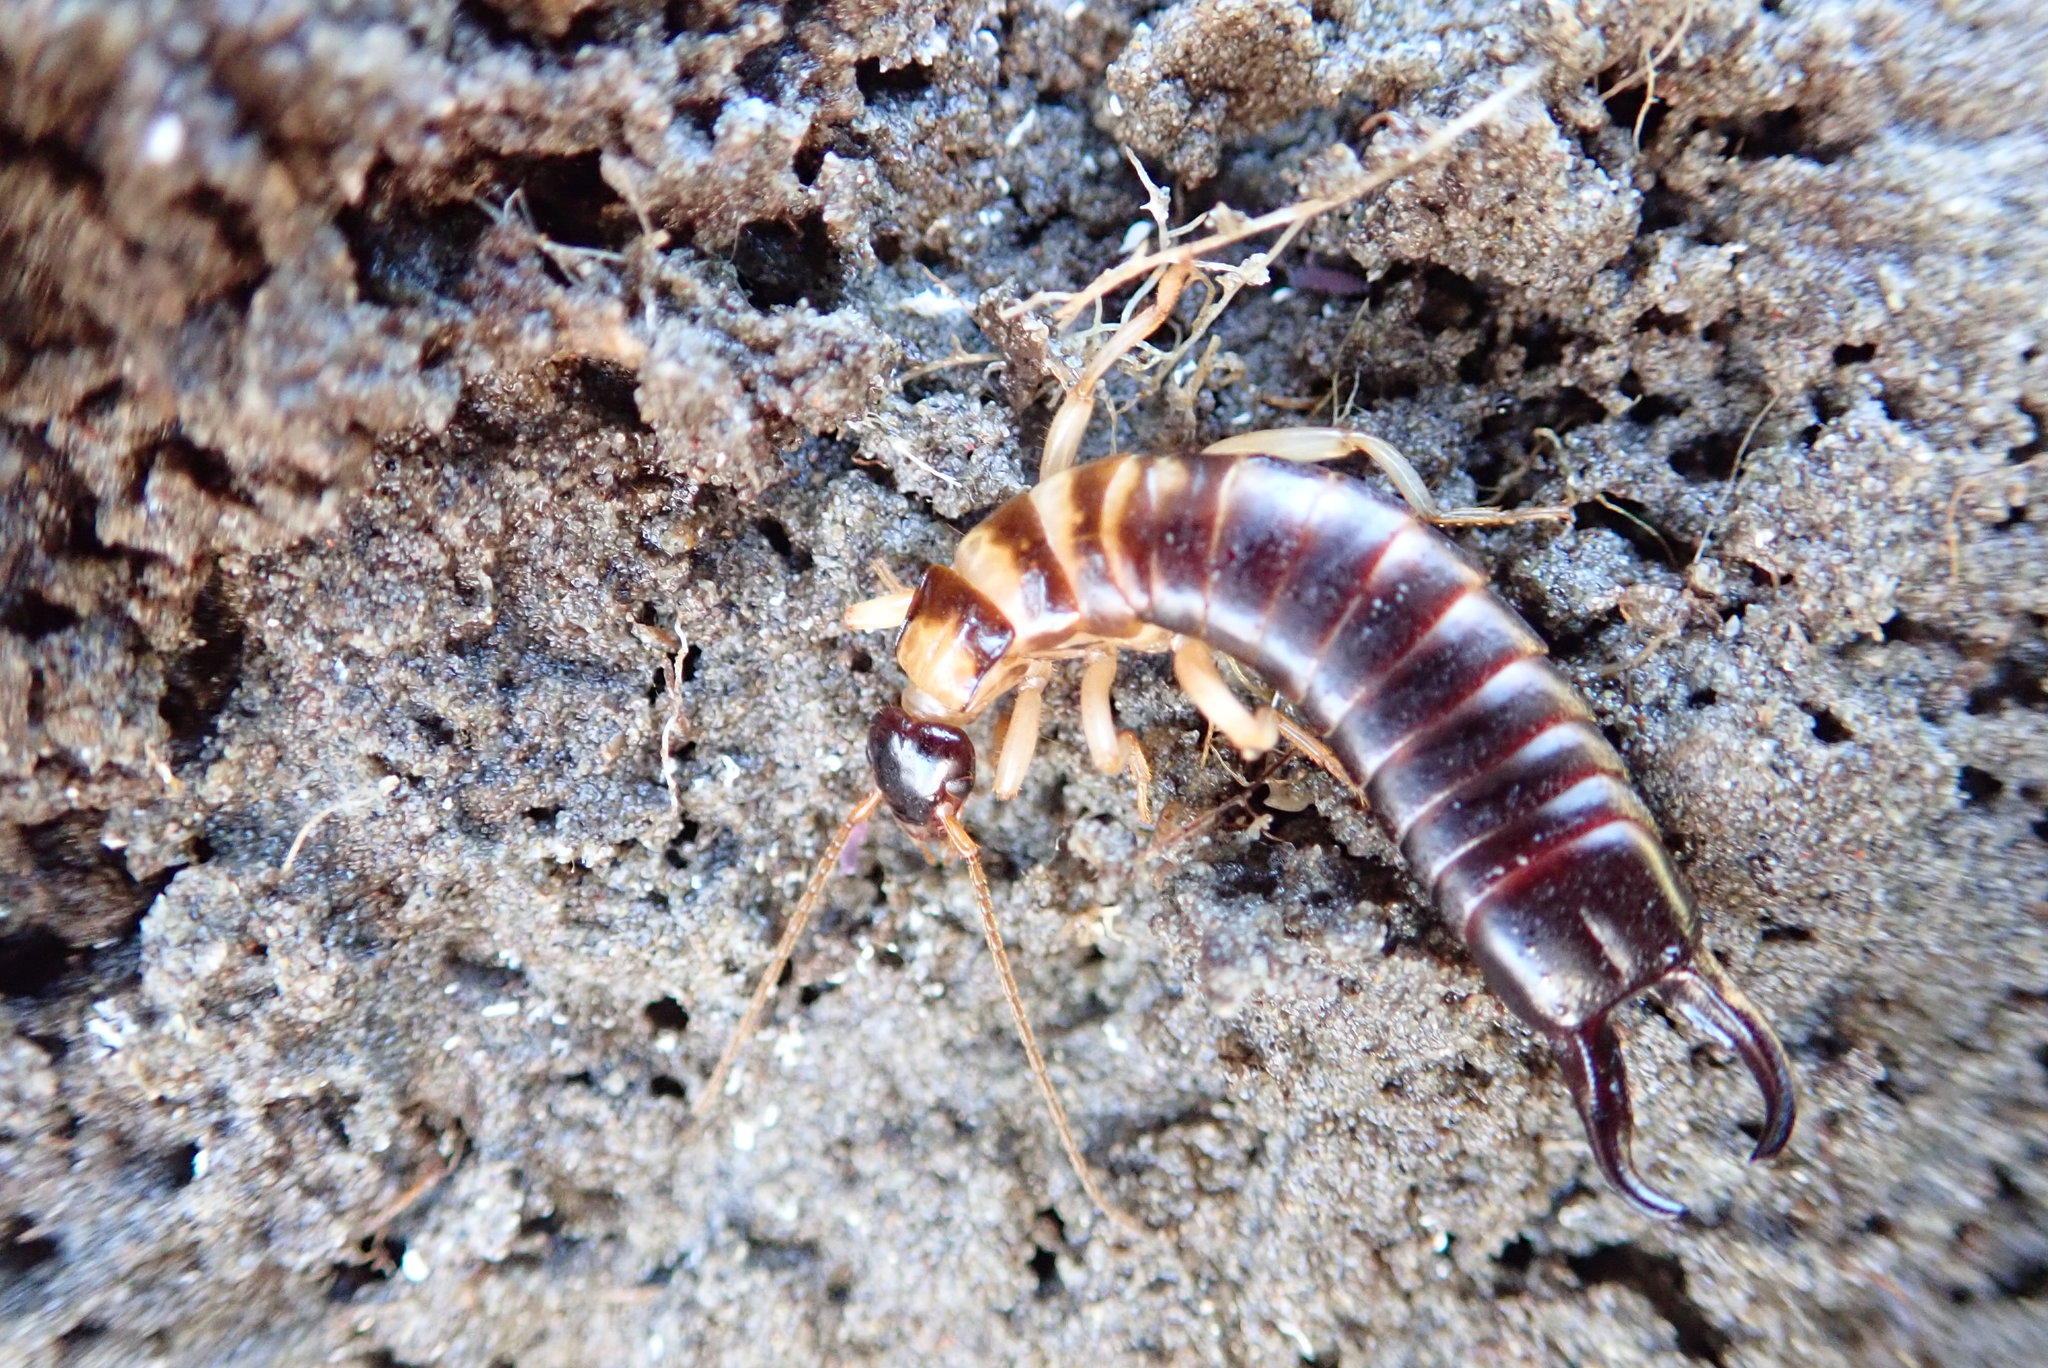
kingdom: Animalia
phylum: Arthropoda
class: Insecta
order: Dermaptera
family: Anisolabididae
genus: Anisolabis
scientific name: Anisolabis littorea
